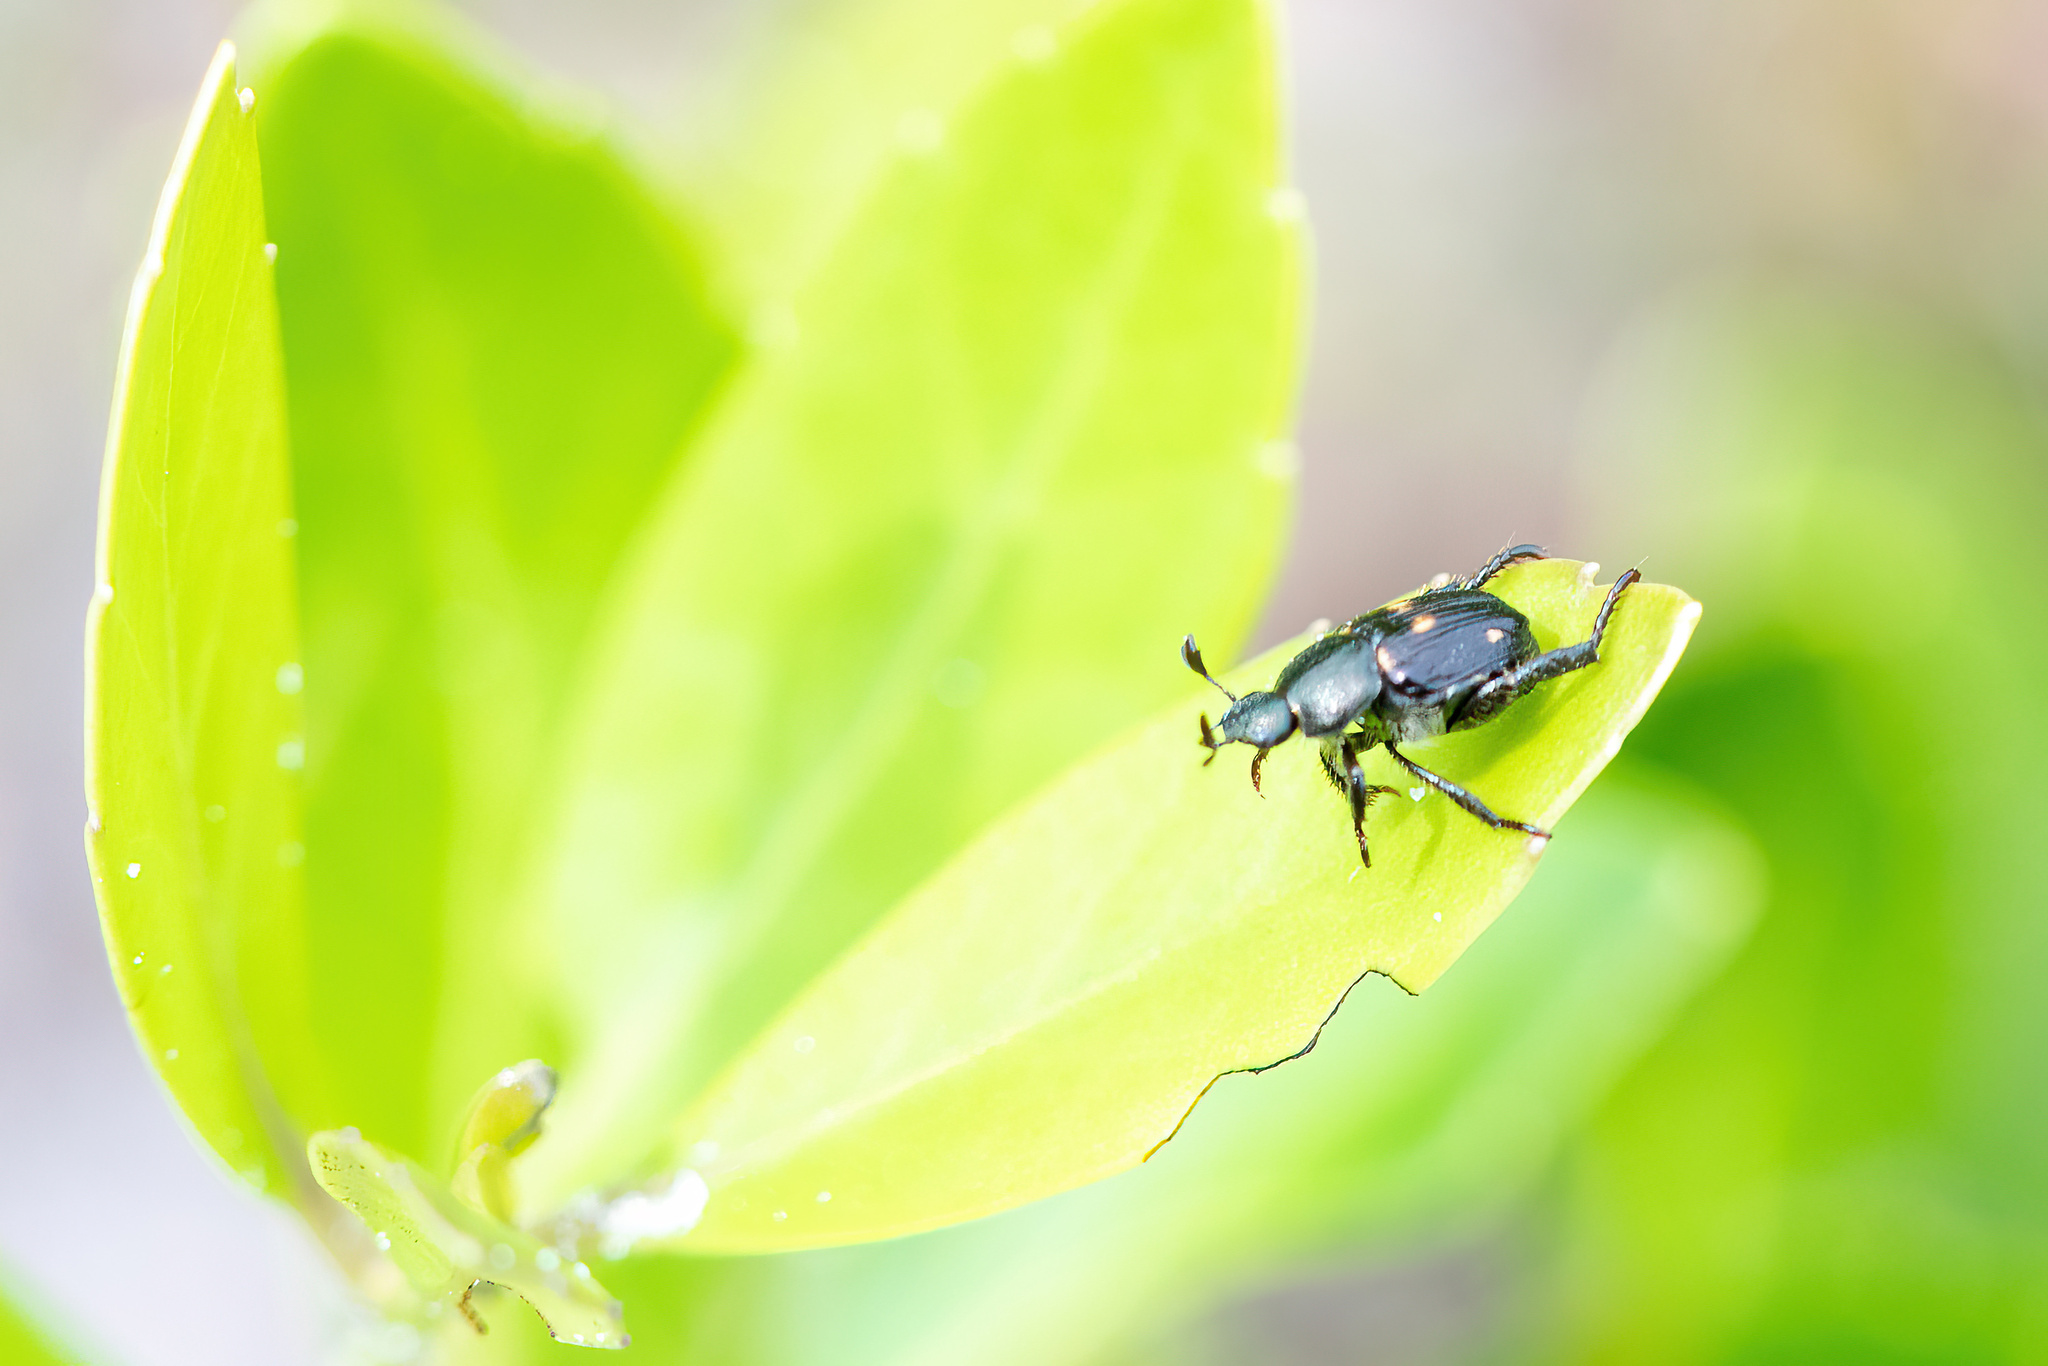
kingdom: Animalia
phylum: Arthropoda
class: Insecta
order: Coleoptera
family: Scarabaeidae
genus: Strigoderma
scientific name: Strigoderma pygmaea
